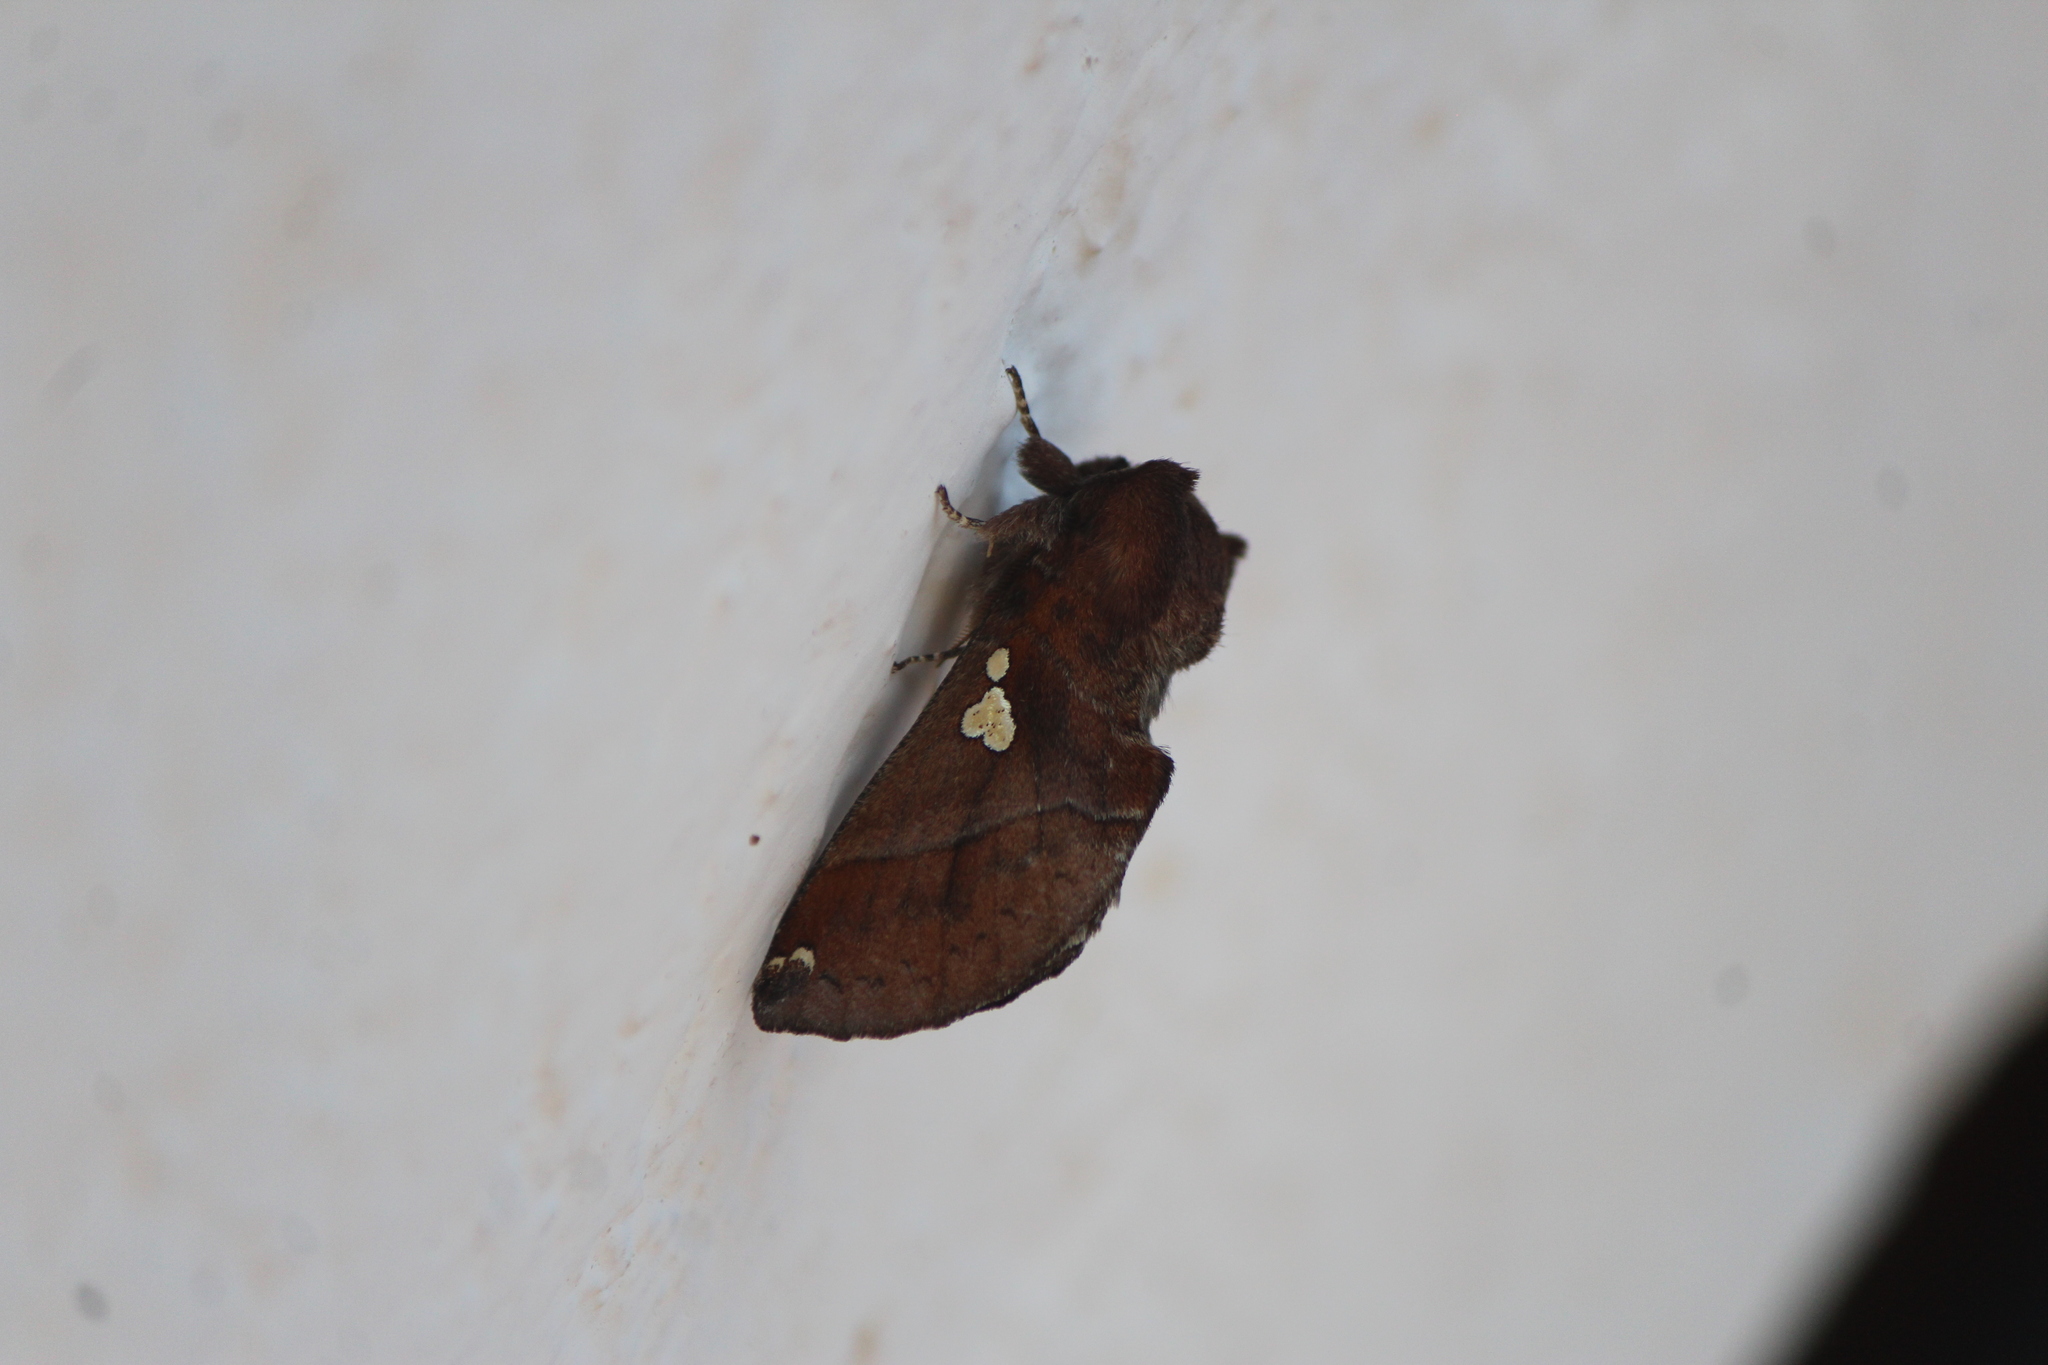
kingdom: Animalia
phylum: Arthropoda
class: Insecta
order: Lepidoptera
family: Notodontidae
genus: Pseudhapigia
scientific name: Pseudhapigia brunnea
